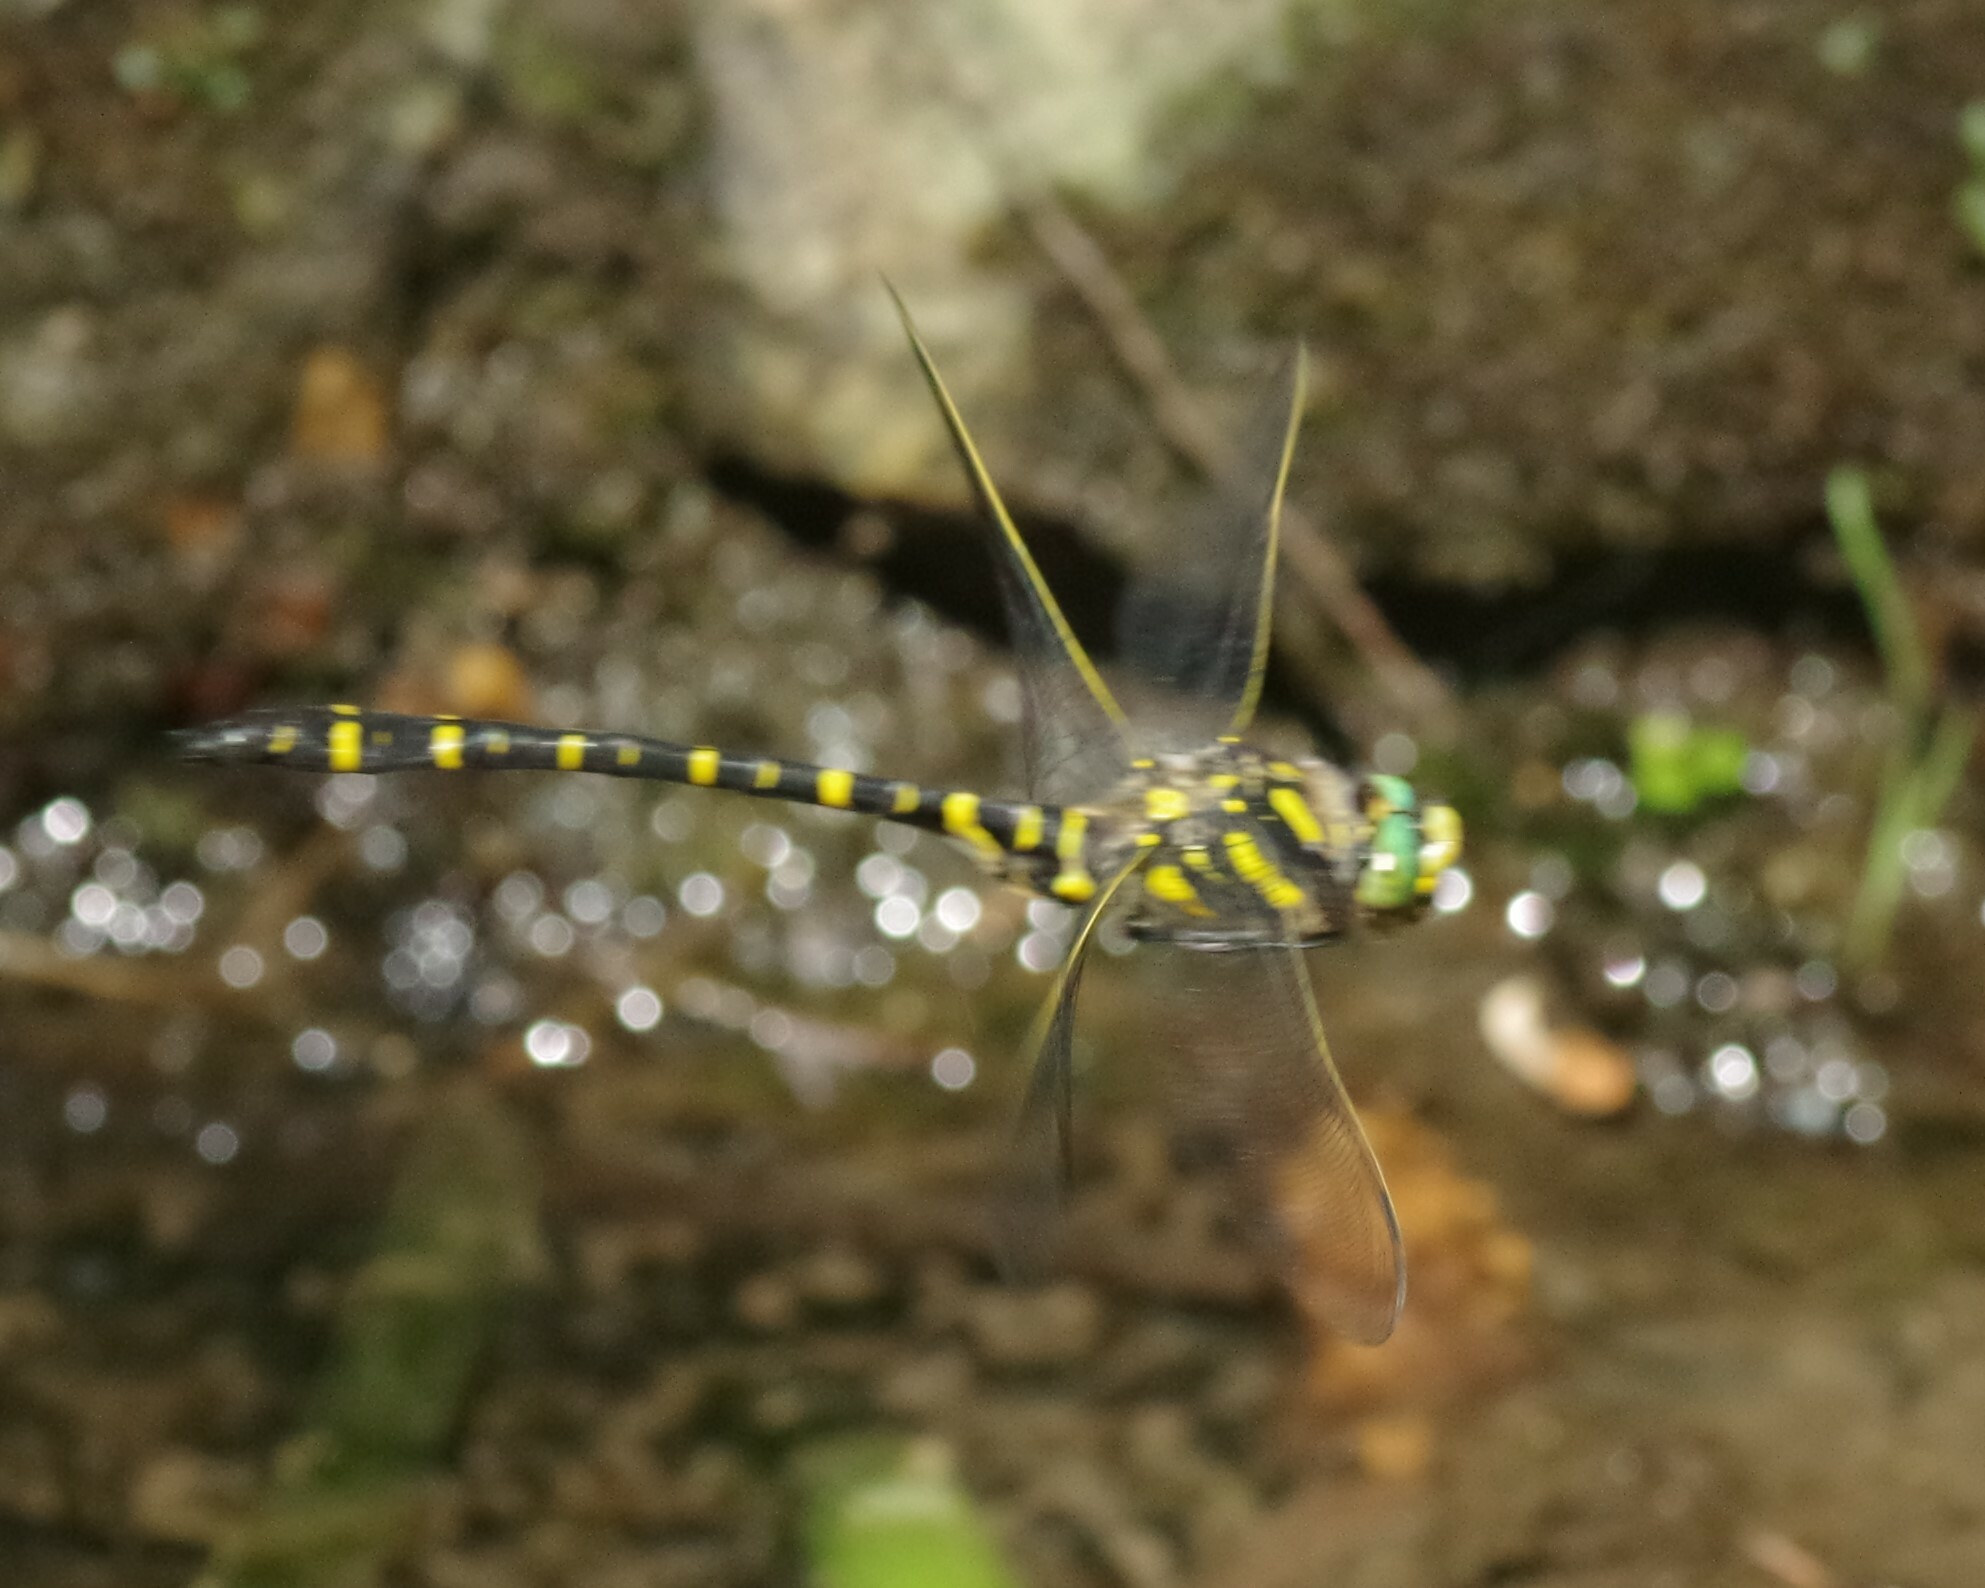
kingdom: Animalia
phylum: Arthropoda
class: Insecta
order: Odonata
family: Cordulegastridae
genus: Cordulegaster
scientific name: Cordulegaster boltonii
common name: Golden-ringed dragonfly
